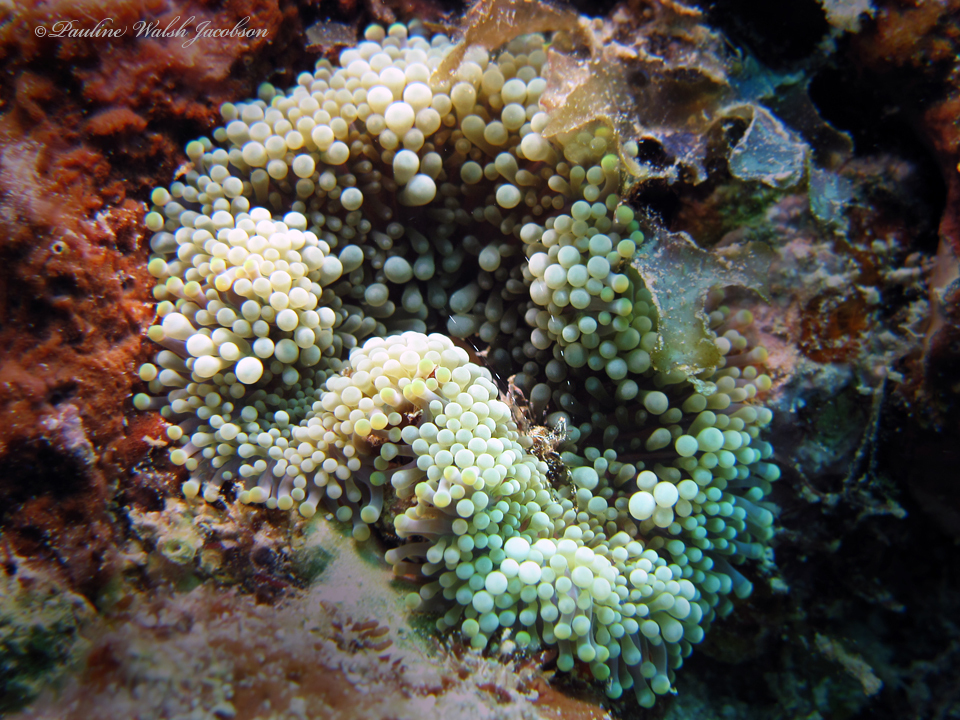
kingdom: Animalia
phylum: Cnidaria
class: Anthozoa
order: Corallimorpharia
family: Ricordeidae
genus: Ricordea
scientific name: Ricordea florida
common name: False coral
